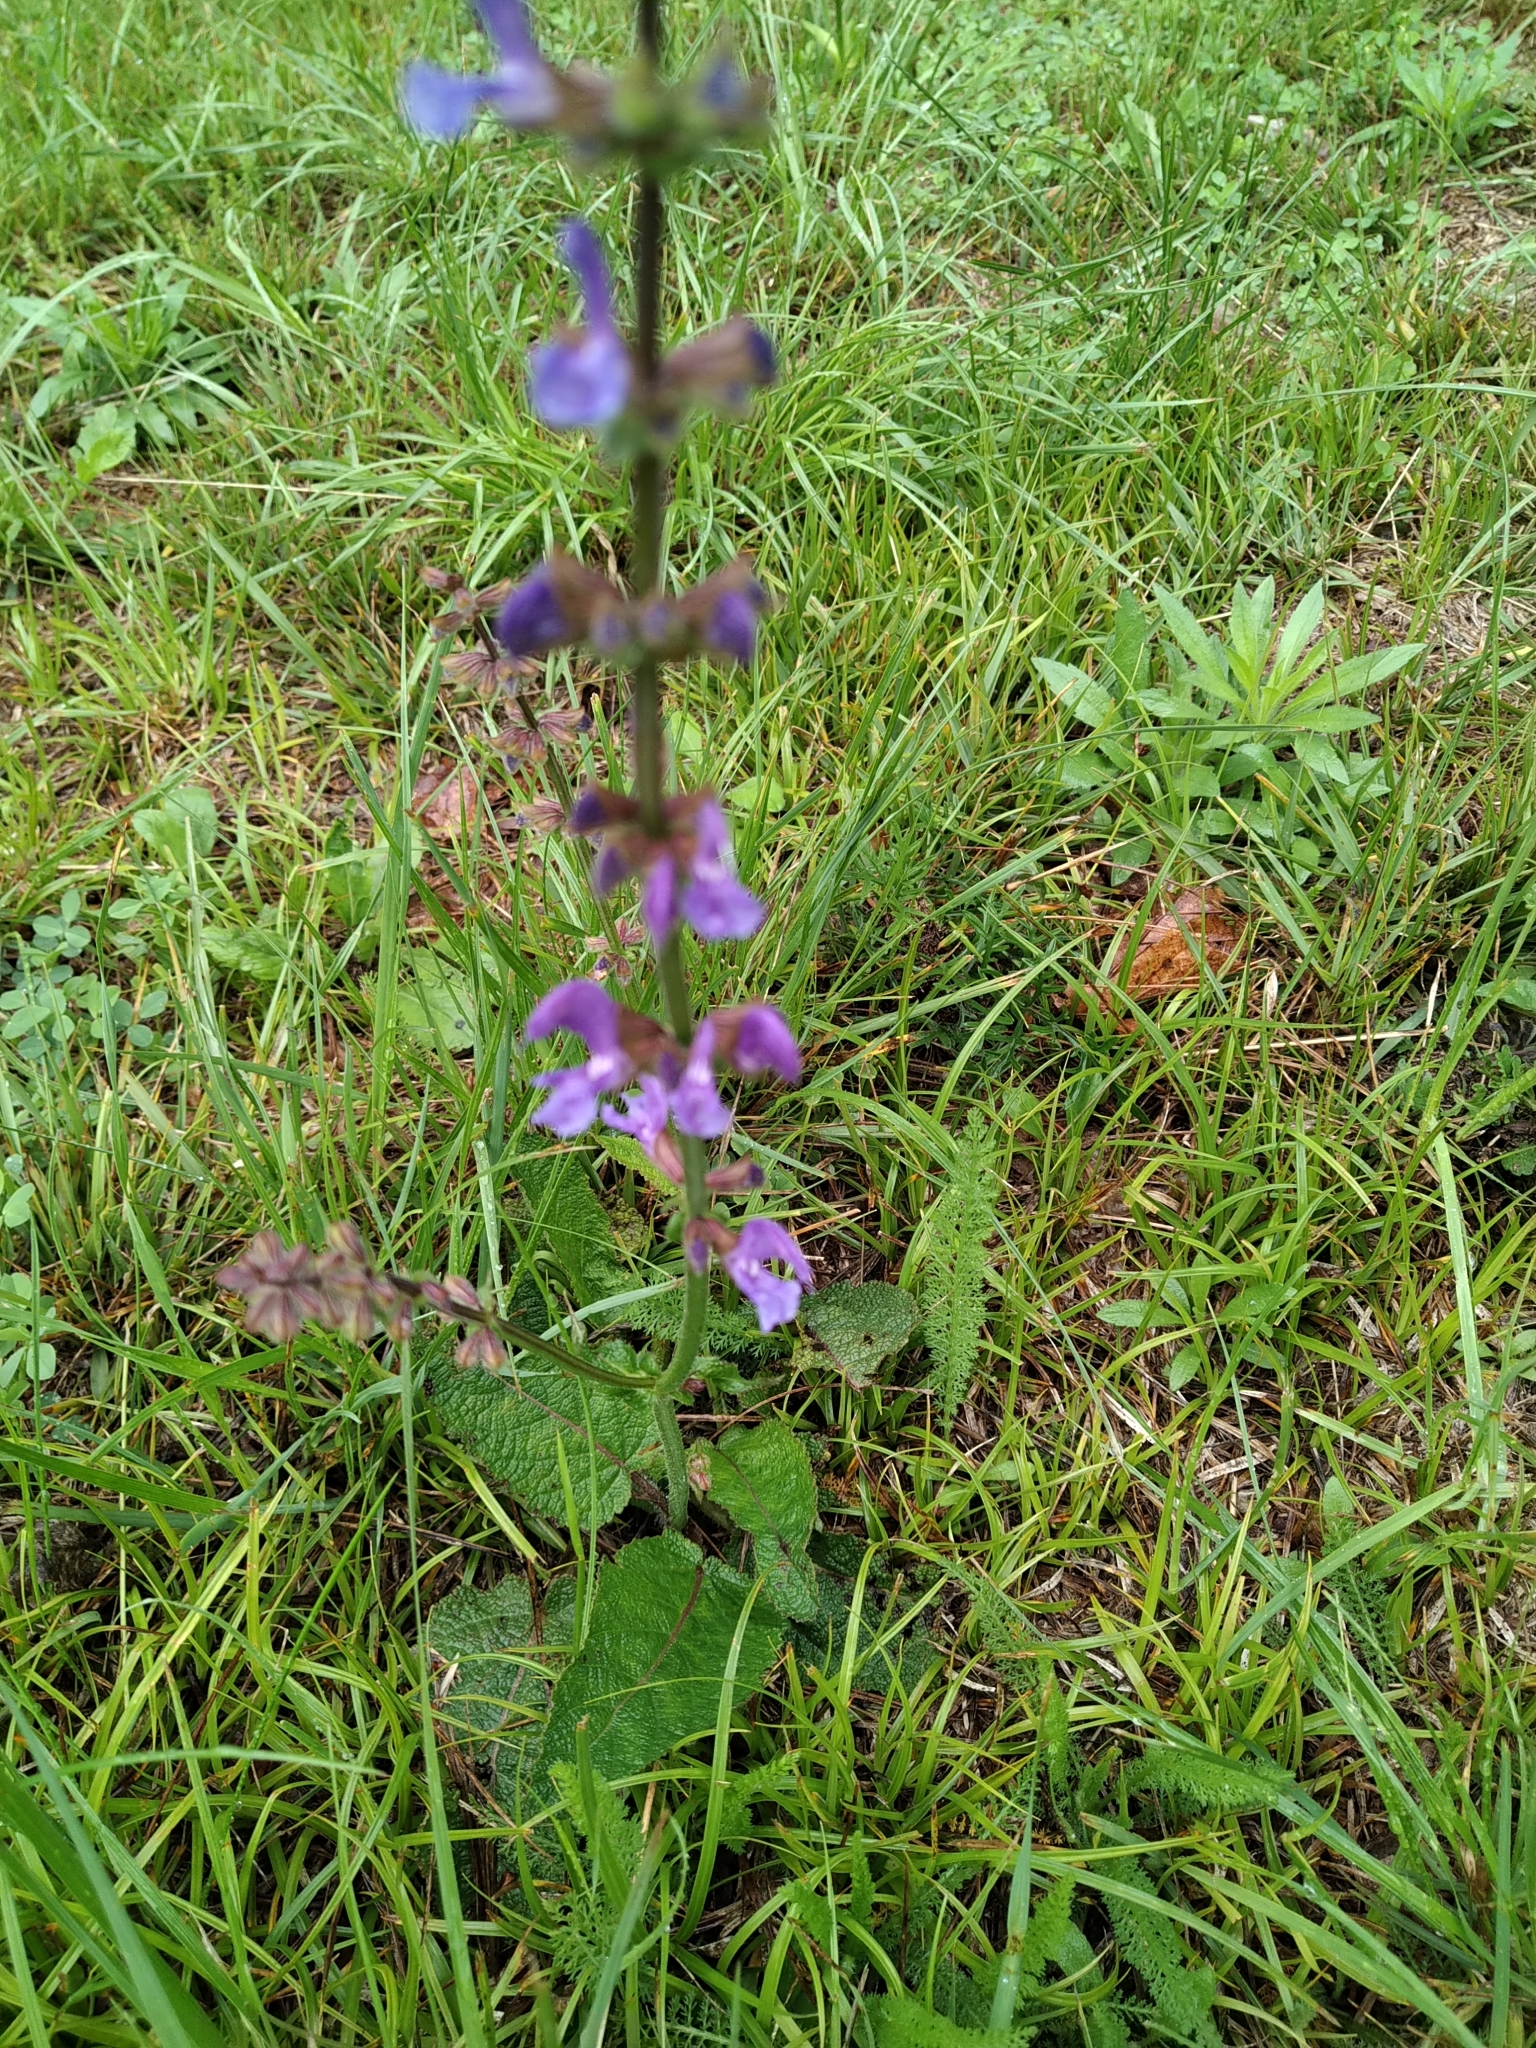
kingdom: Plantae
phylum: Tracheophyta
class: Magnoliopsida
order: Lamiales
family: Lamiaceae
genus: Salvia
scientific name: Salvia pratensis
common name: Meadow sage
